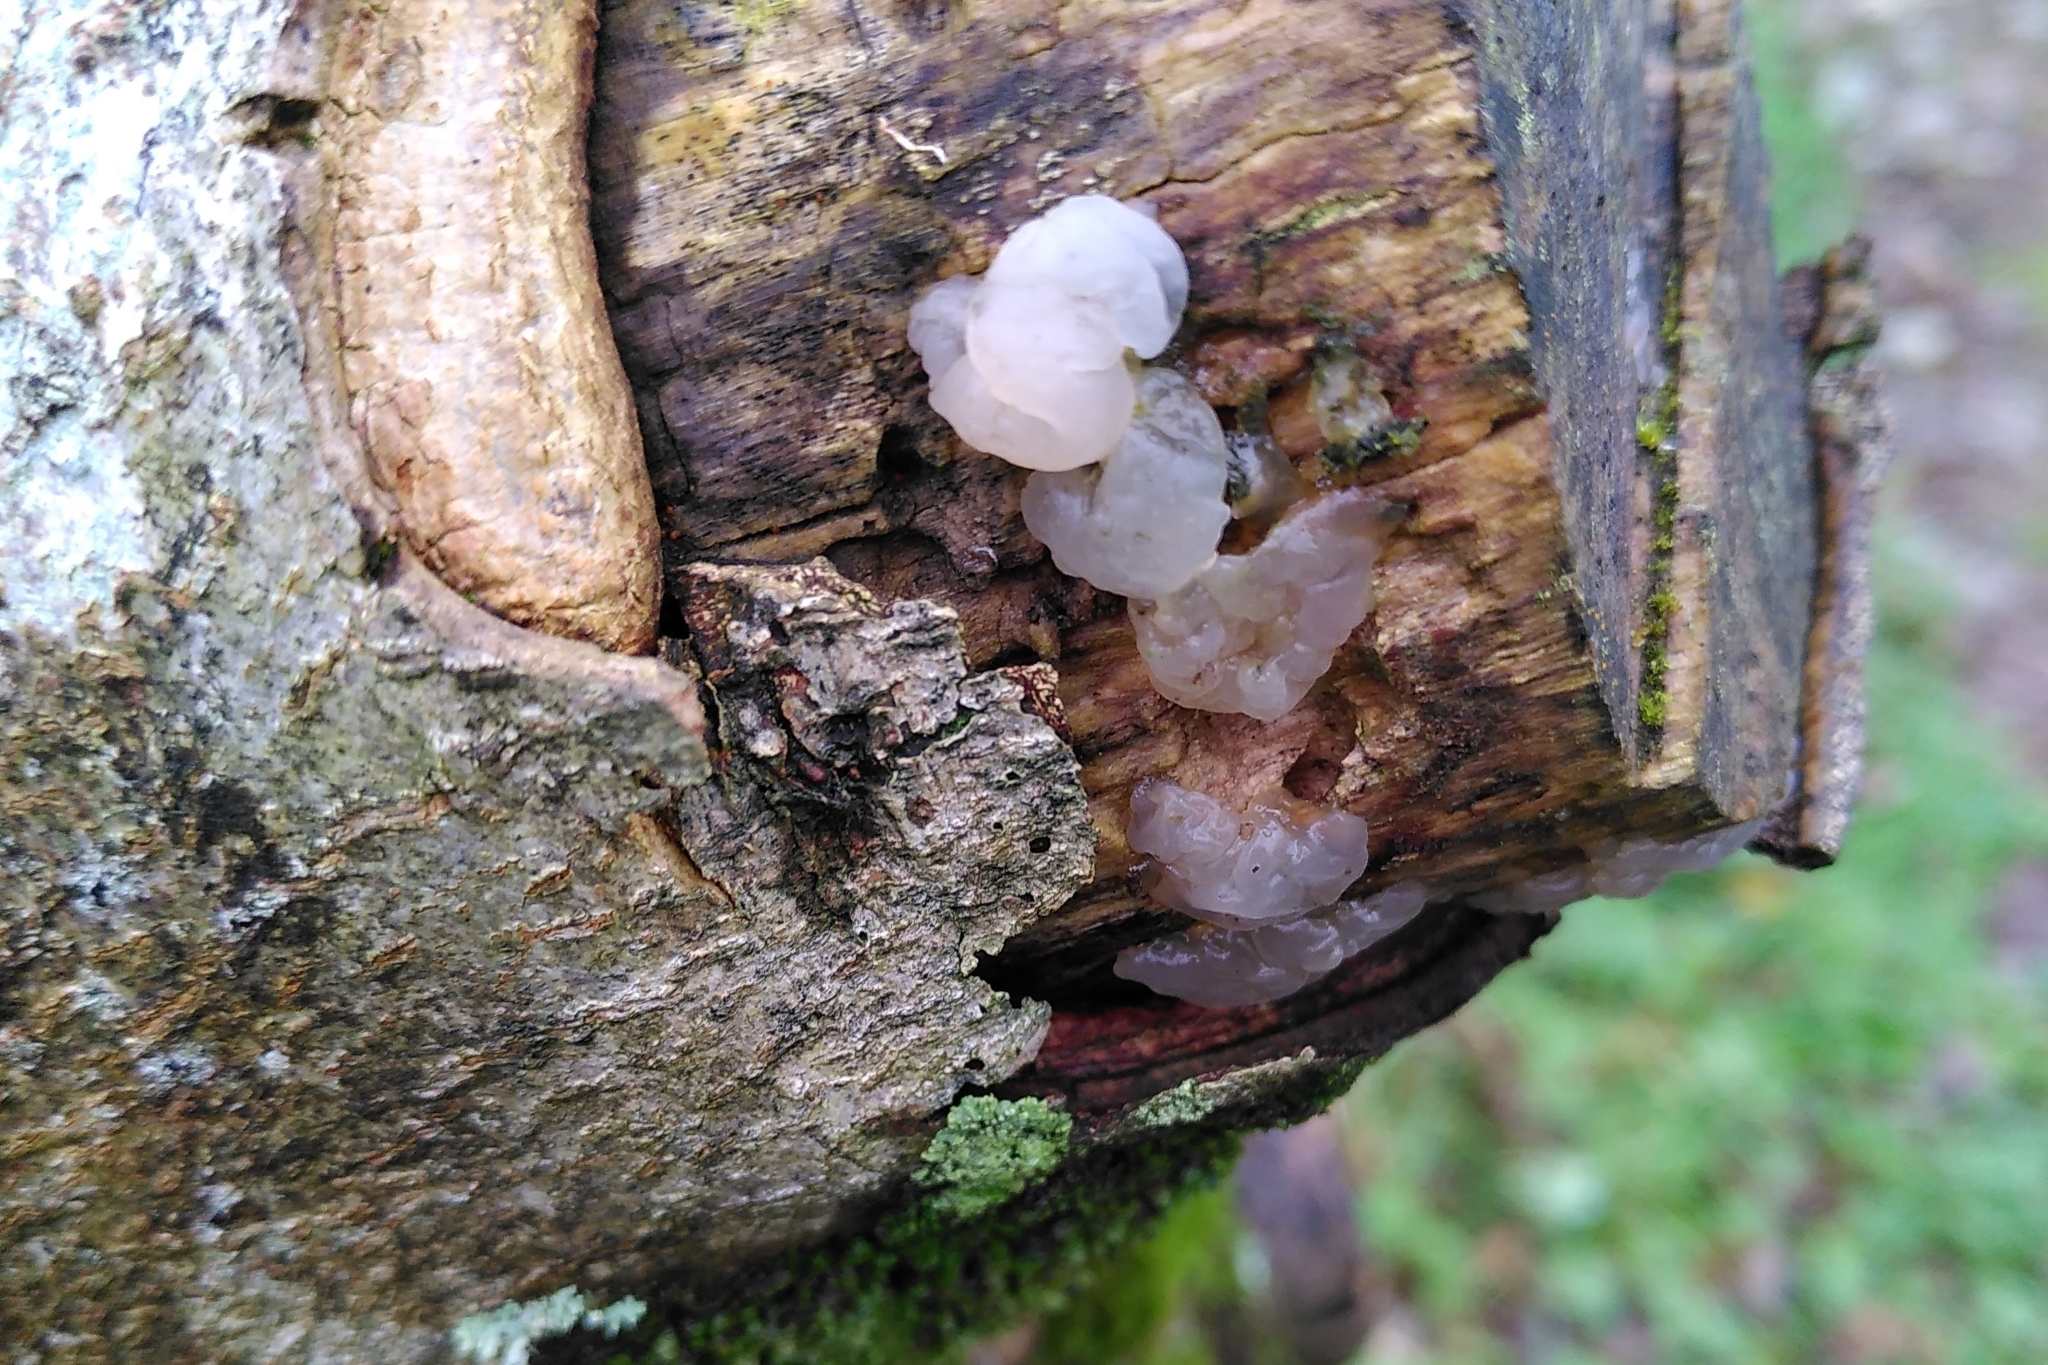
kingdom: Fungi
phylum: Ascomycota
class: Leotiomycetes
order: Helotiales
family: Gelatinodiscaceae
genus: Neobulgaria
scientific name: Neobulgaria pura
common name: Beech jelly-disc
